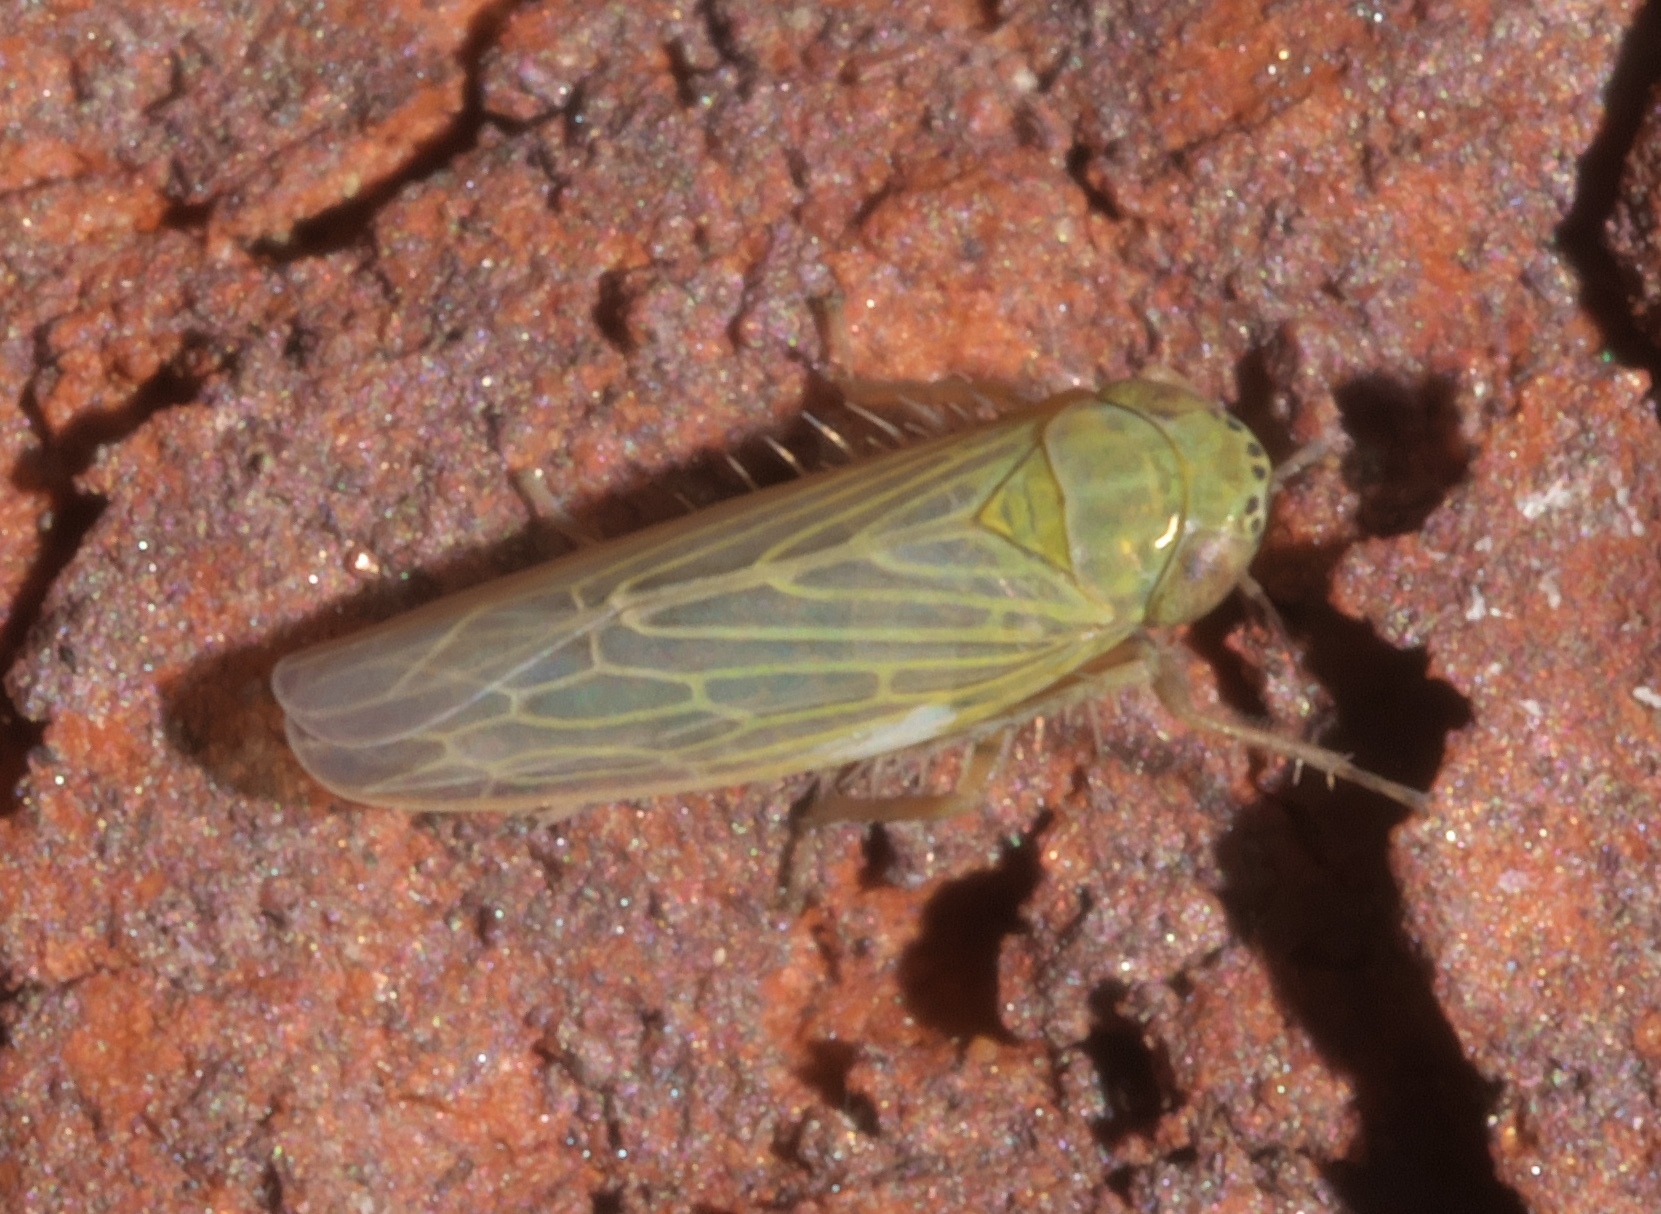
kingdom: Animalia
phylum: Arthropoda
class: Insecta
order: Hemiptera
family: Cicadellidae
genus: Graminella
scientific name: Graminella nigrifrons
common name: Blackfaced leafhopper
